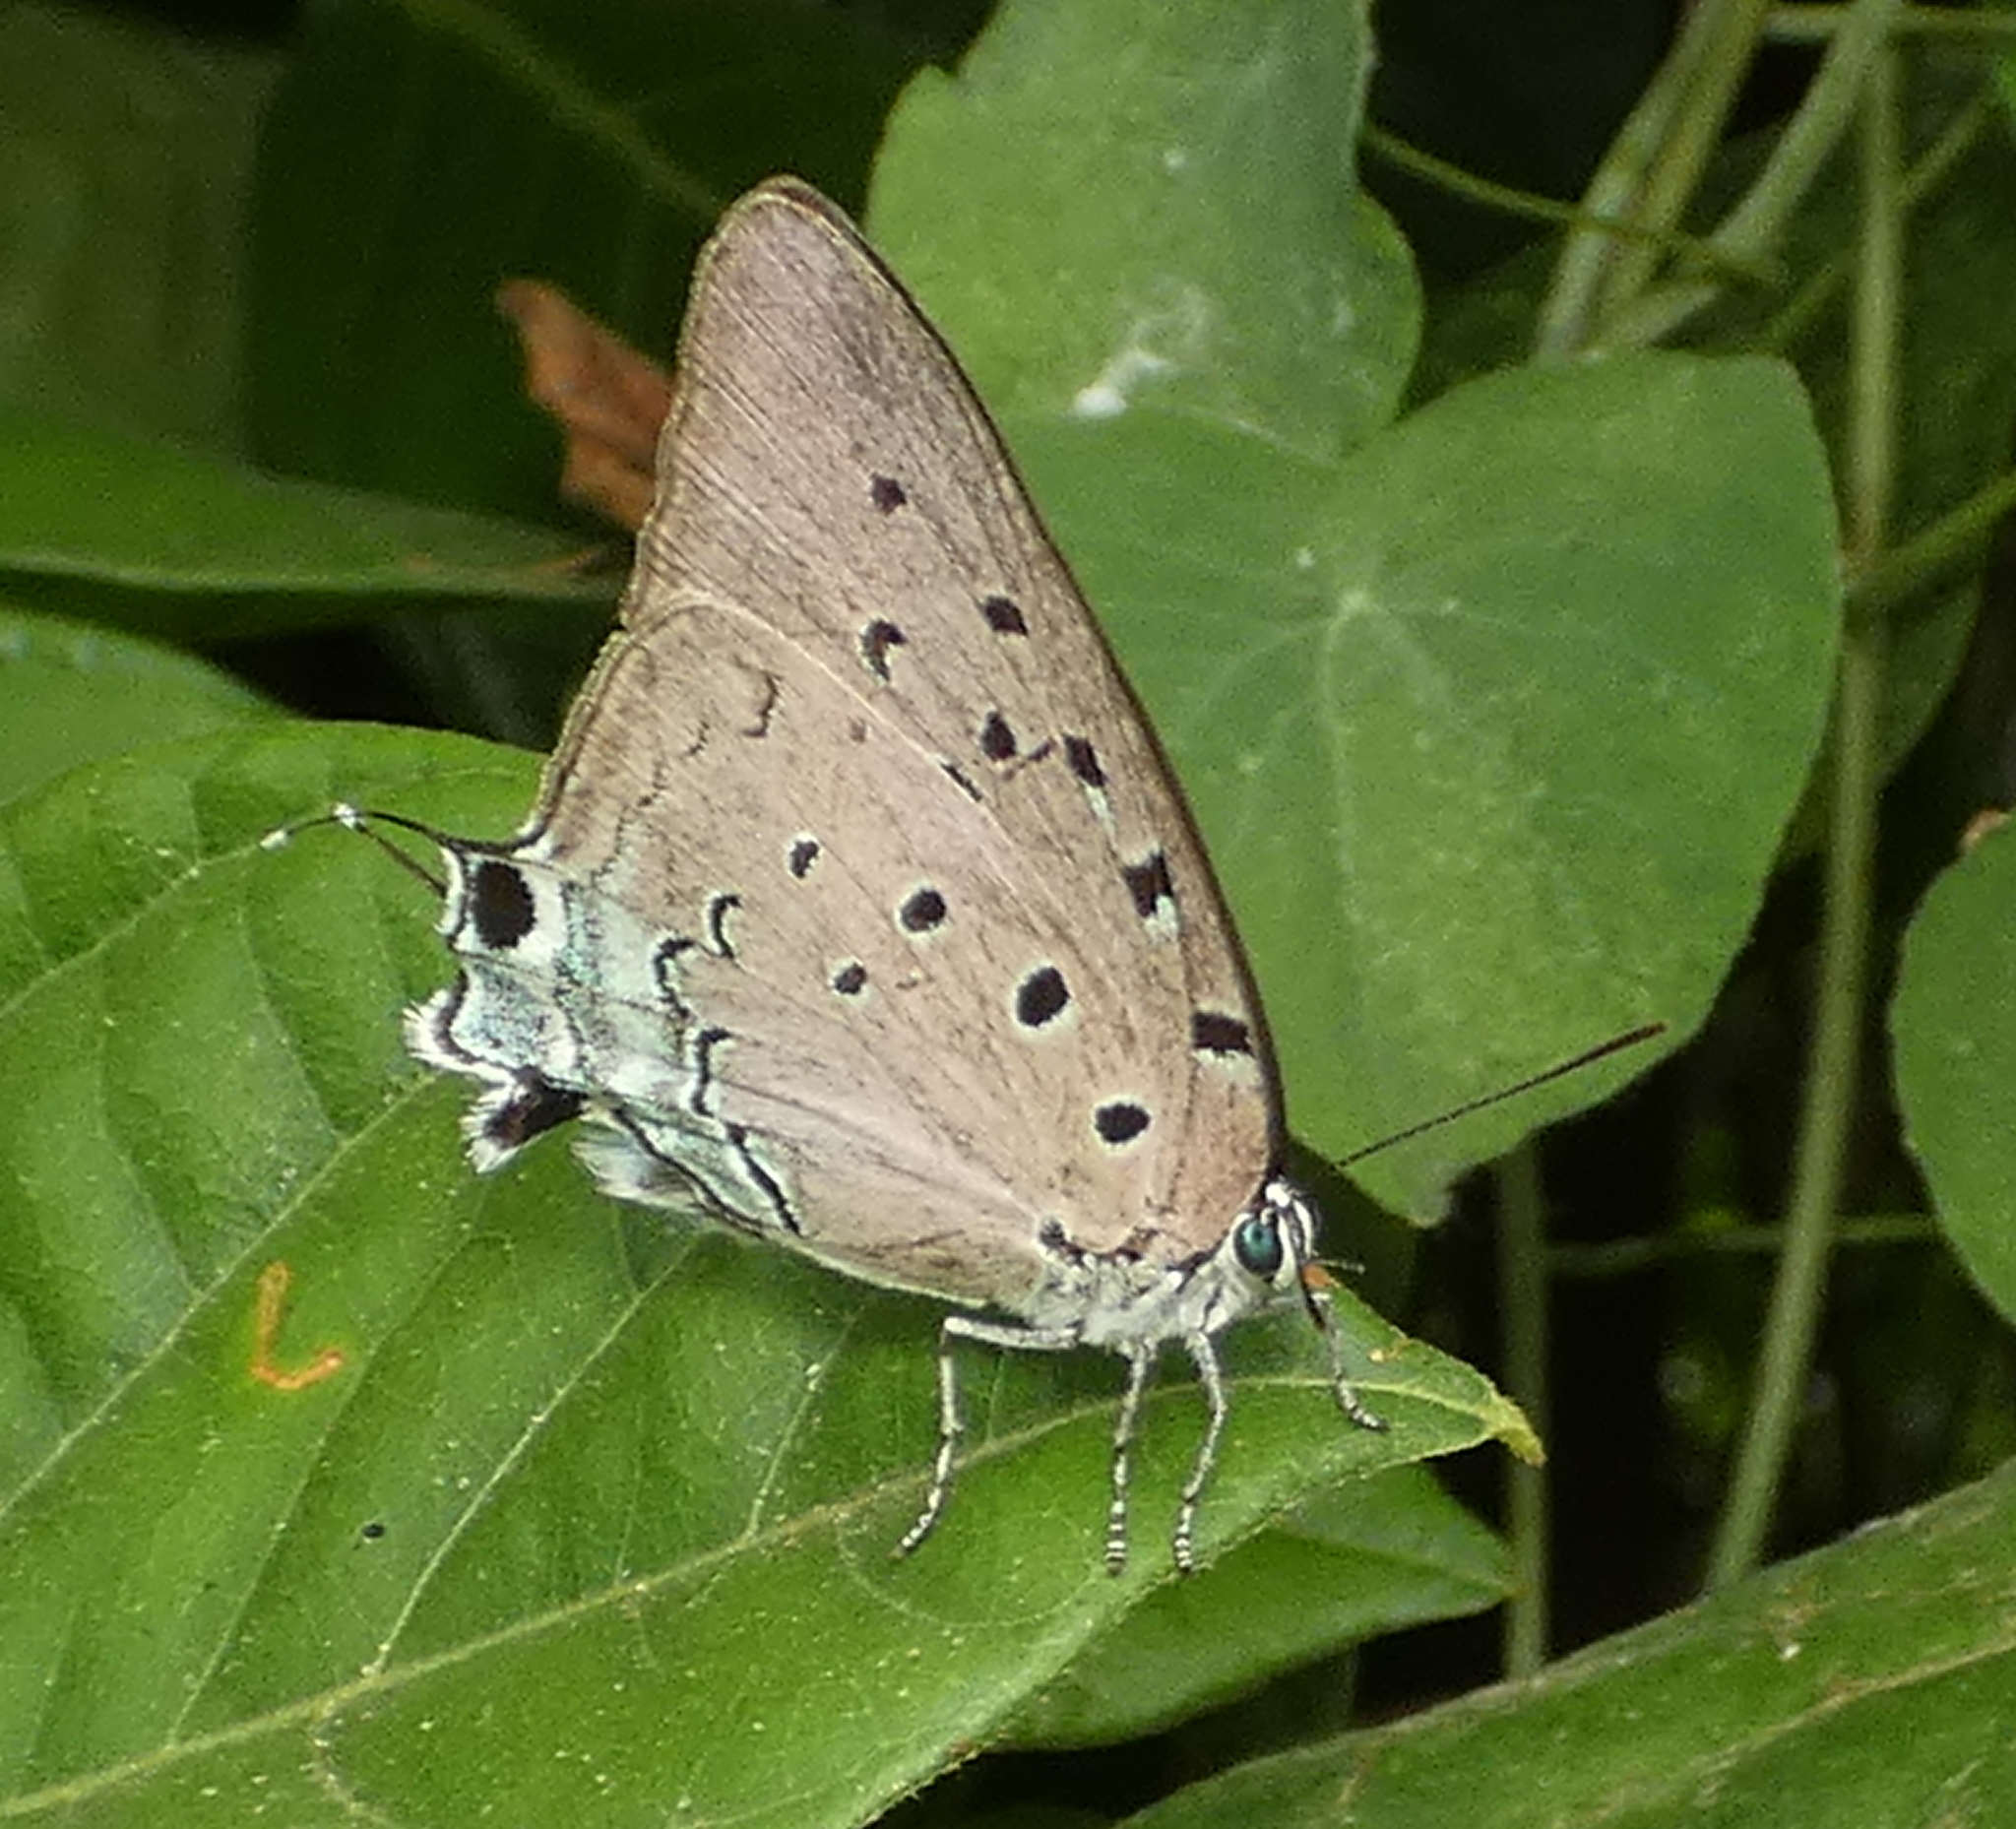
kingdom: Animalia
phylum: Arthropoda
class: Insecta
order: Lepidoptera
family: Lycaenidae
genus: Pseudolycaena
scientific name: Pseudolycaena marsyas
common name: Marsyas hairstreak
